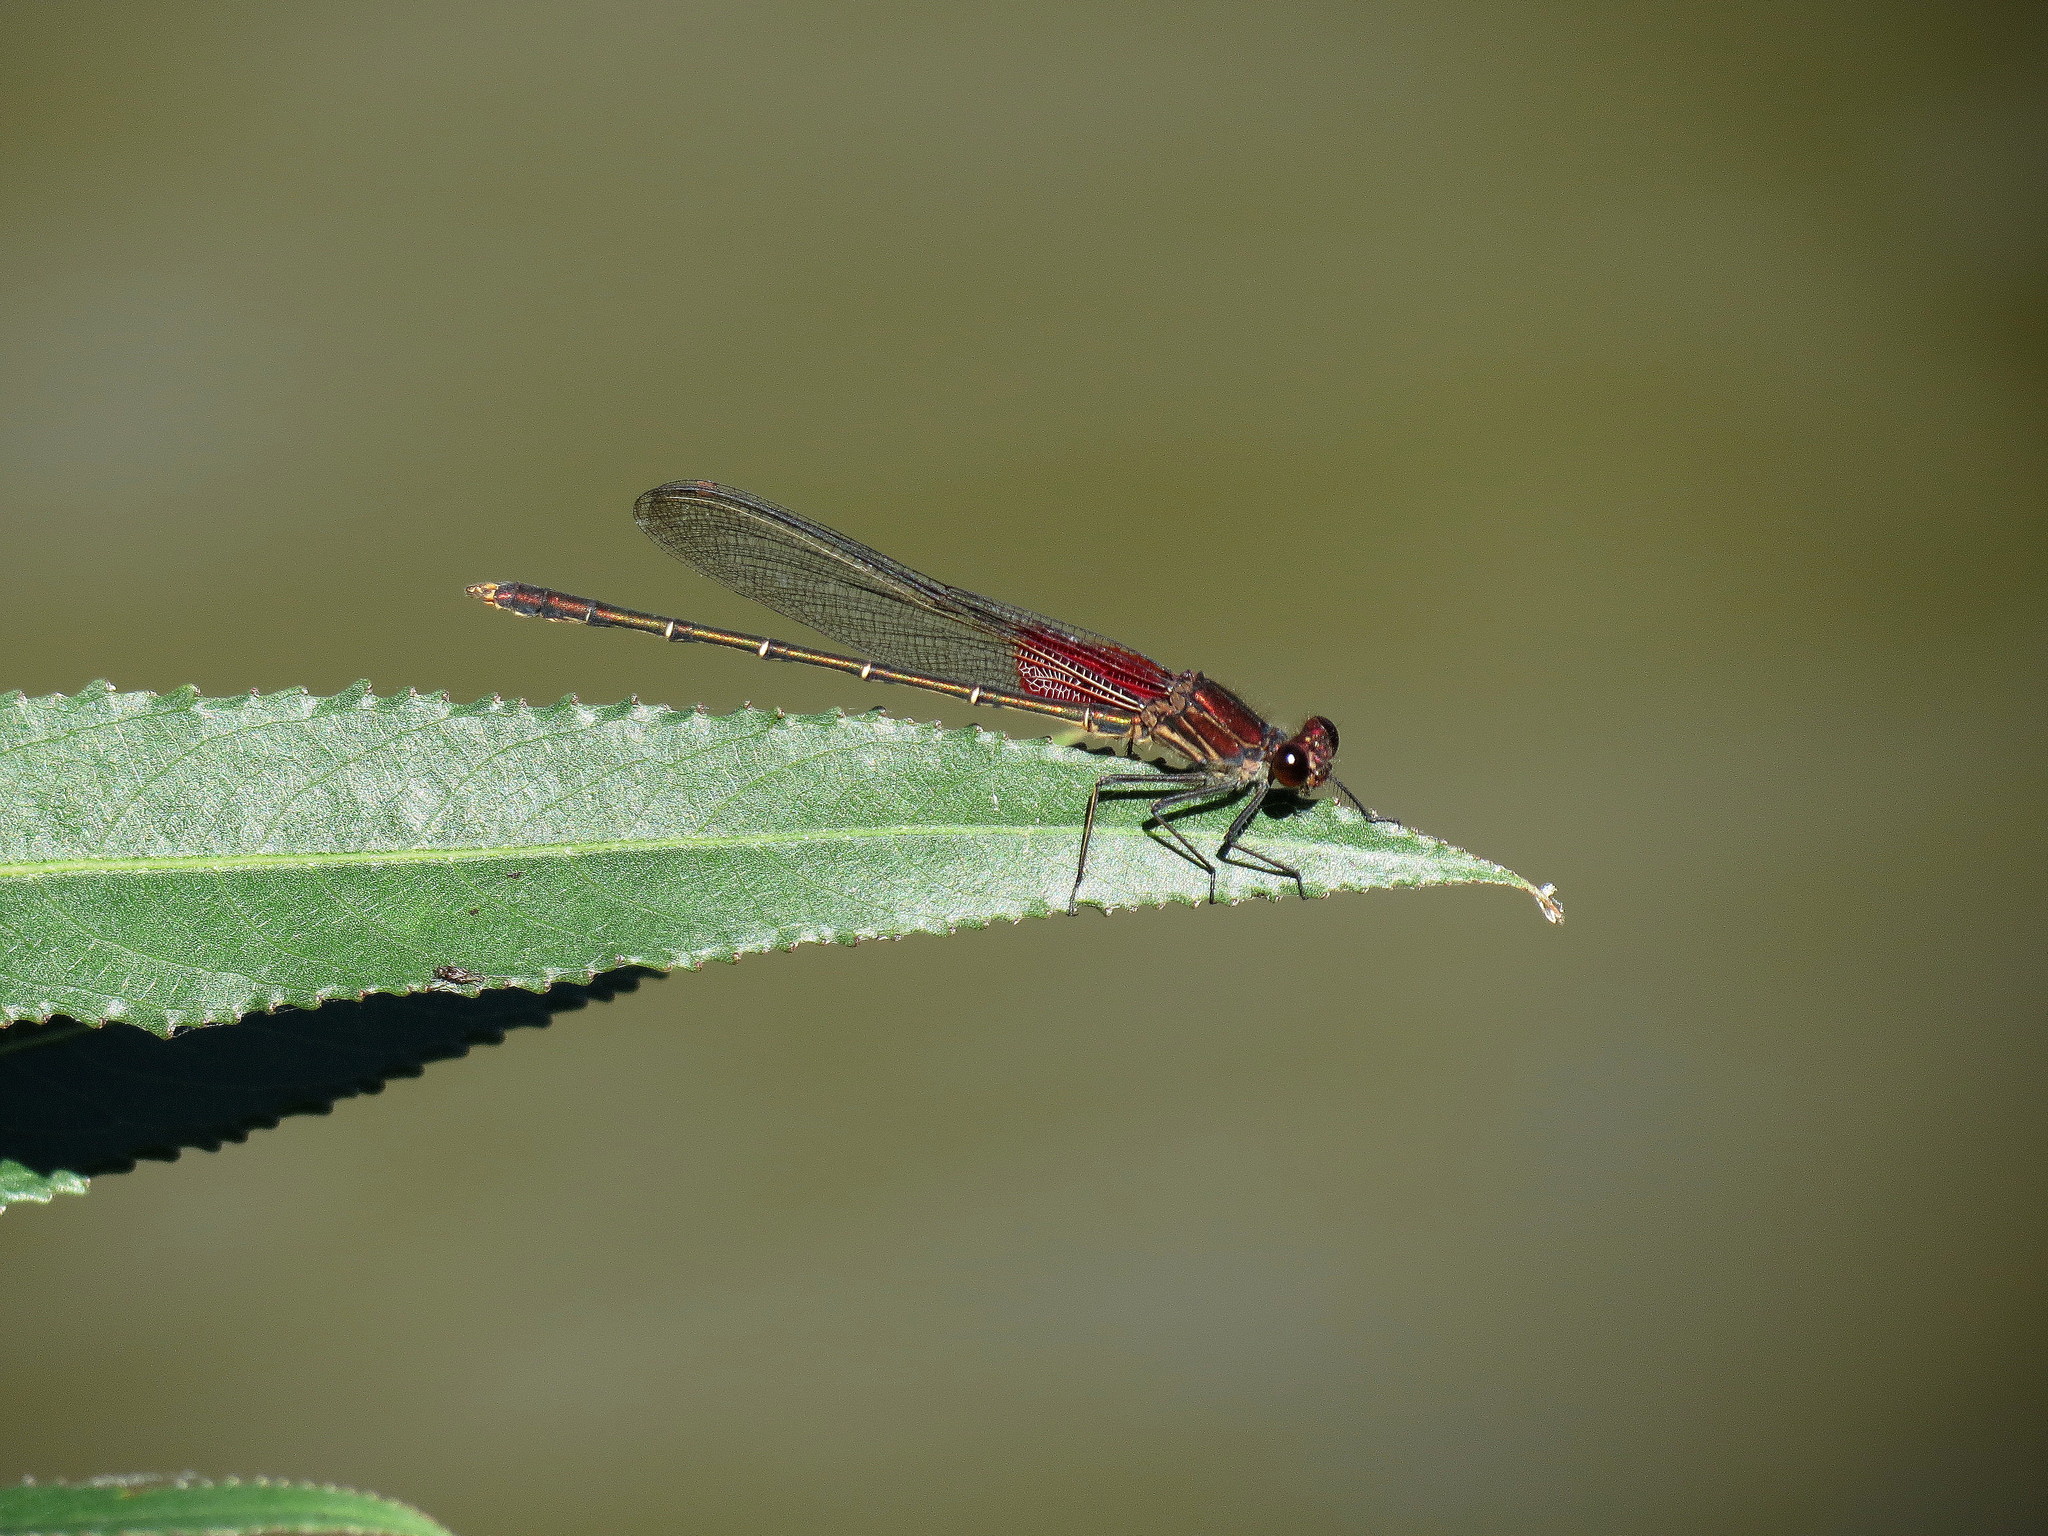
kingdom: Animalia
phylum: Arthropoda
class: Insecta
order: Odonata
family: Calopterygidae
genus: Hetaerina
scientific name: Hetaerina americana
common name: American rubyspot
